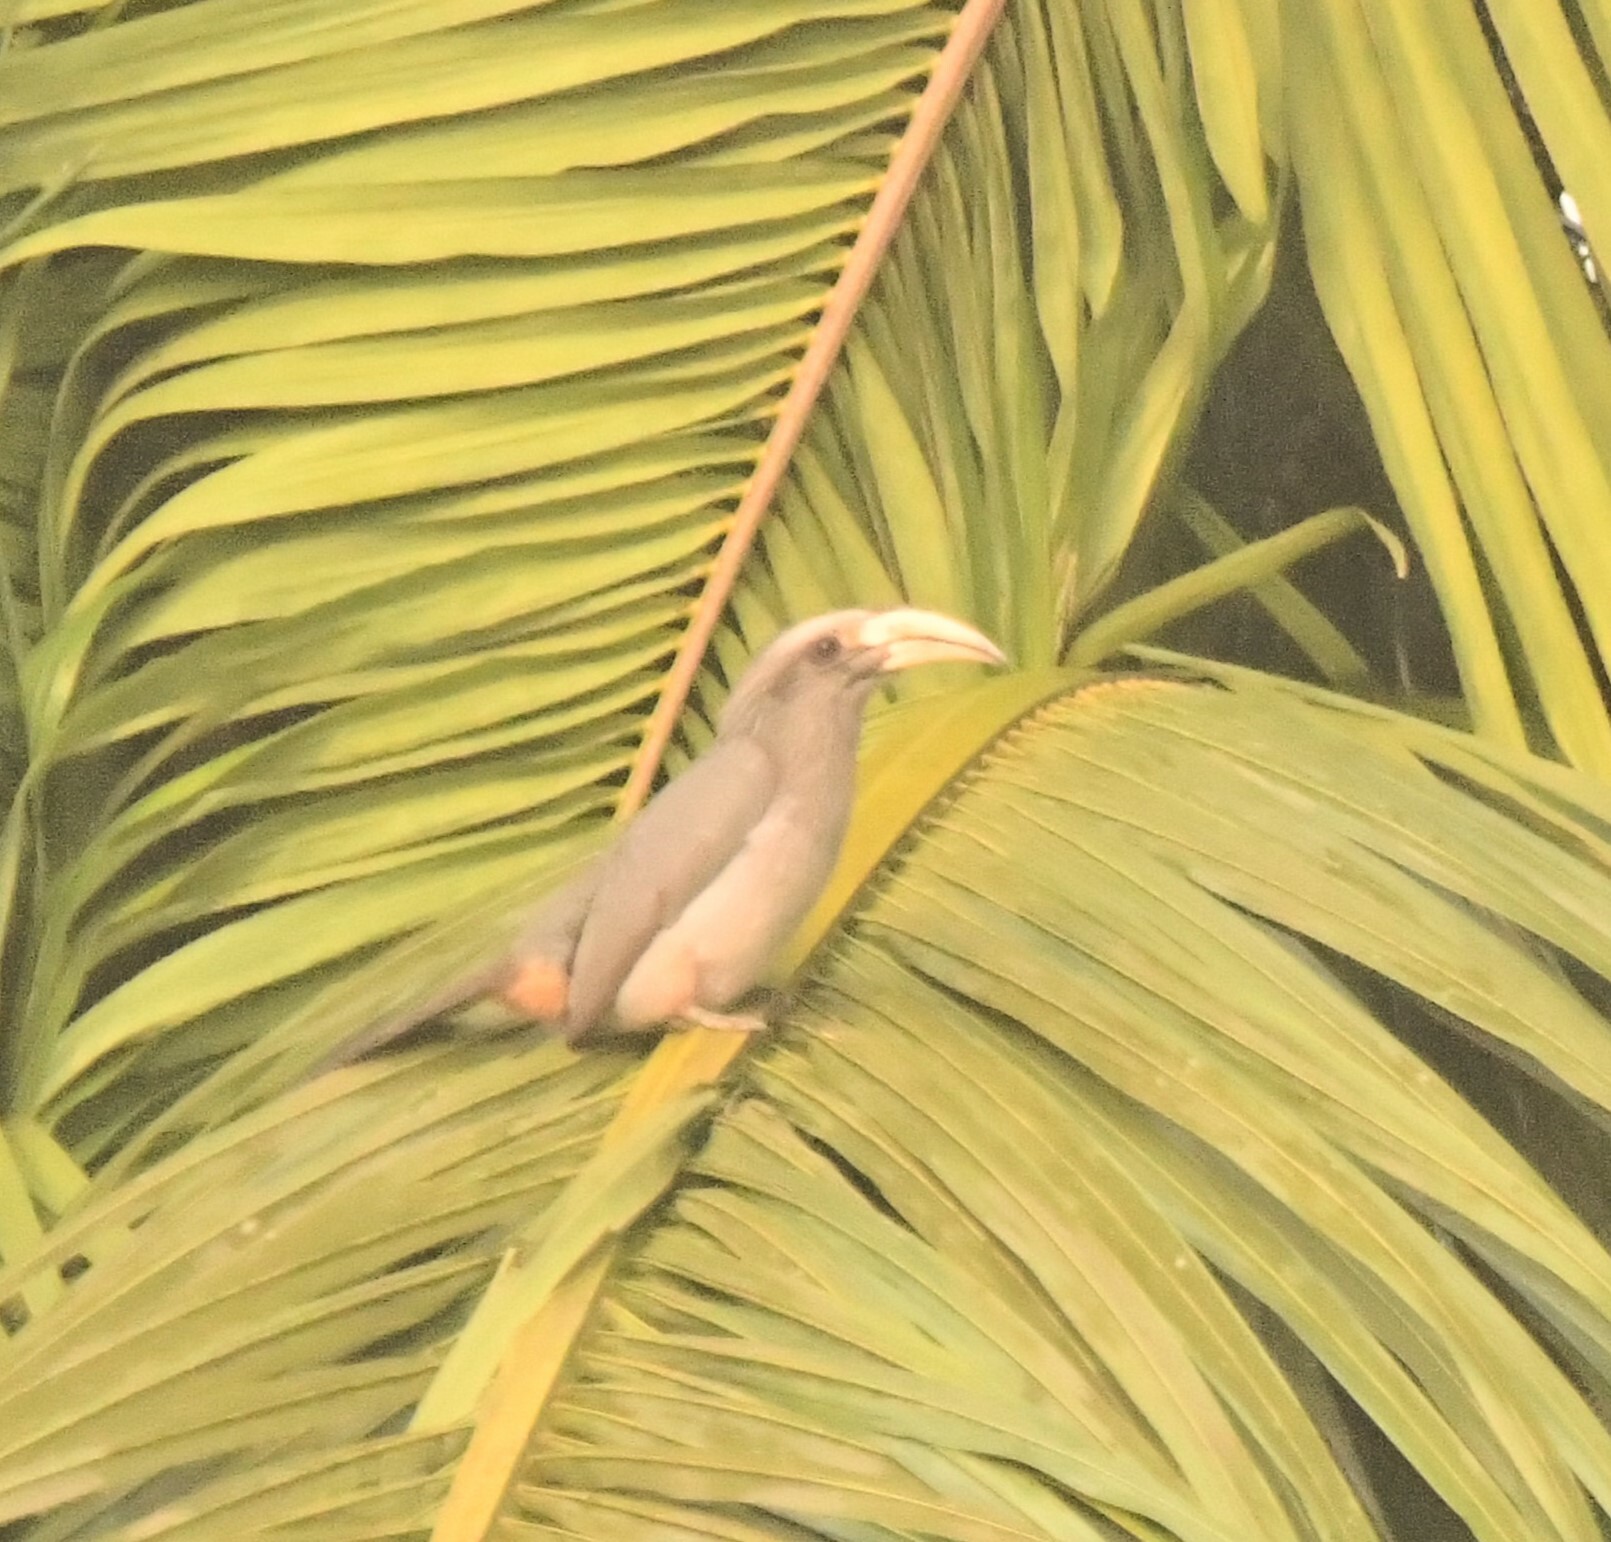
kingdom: Animalia
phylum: Chordata
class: Aves
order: Bucerotiformes
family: Bucerotidae
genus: Ocyceros
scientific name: Ocyceros griseus
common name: Malabar grey hornbill
